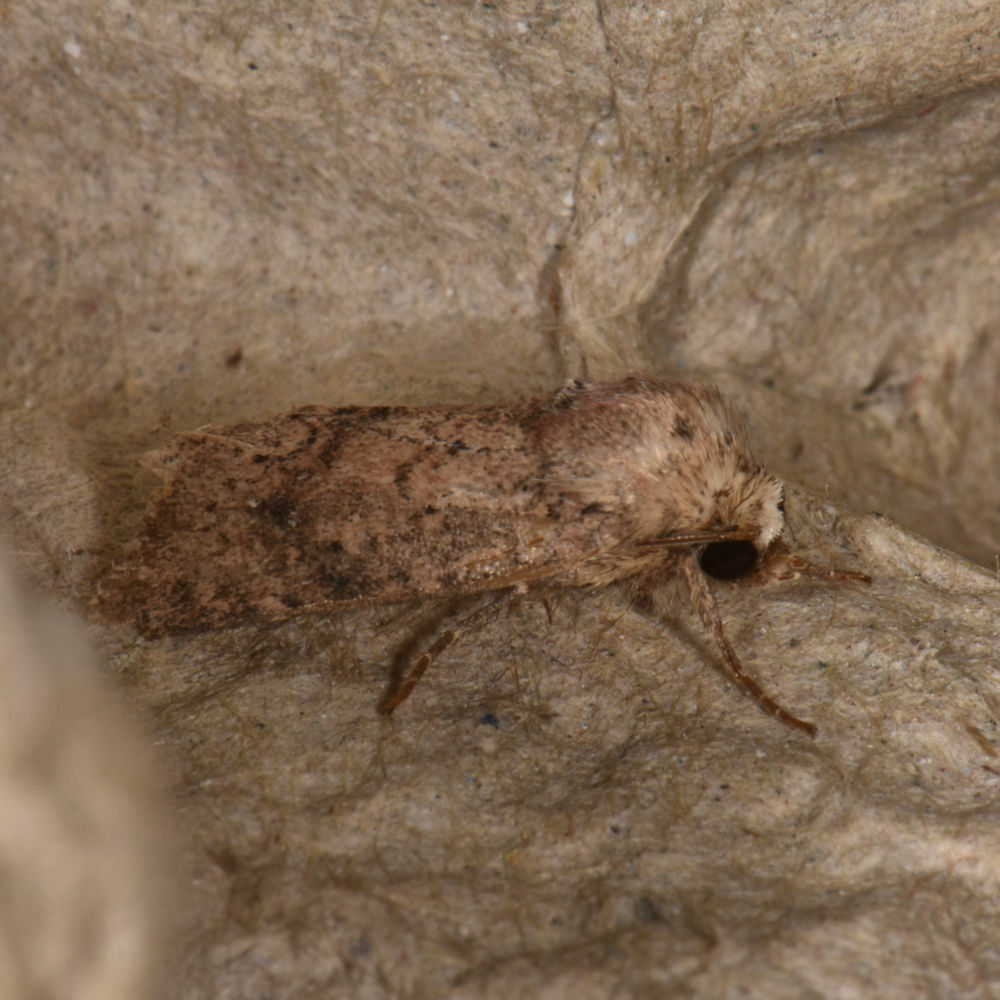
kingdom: Animalia
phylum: Arthropoda
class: Insecta
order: Lepidoptera
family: Noctuidae
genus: Homorthodes
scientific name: Homorthodes furfurata
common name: Northern scurfy quaker
